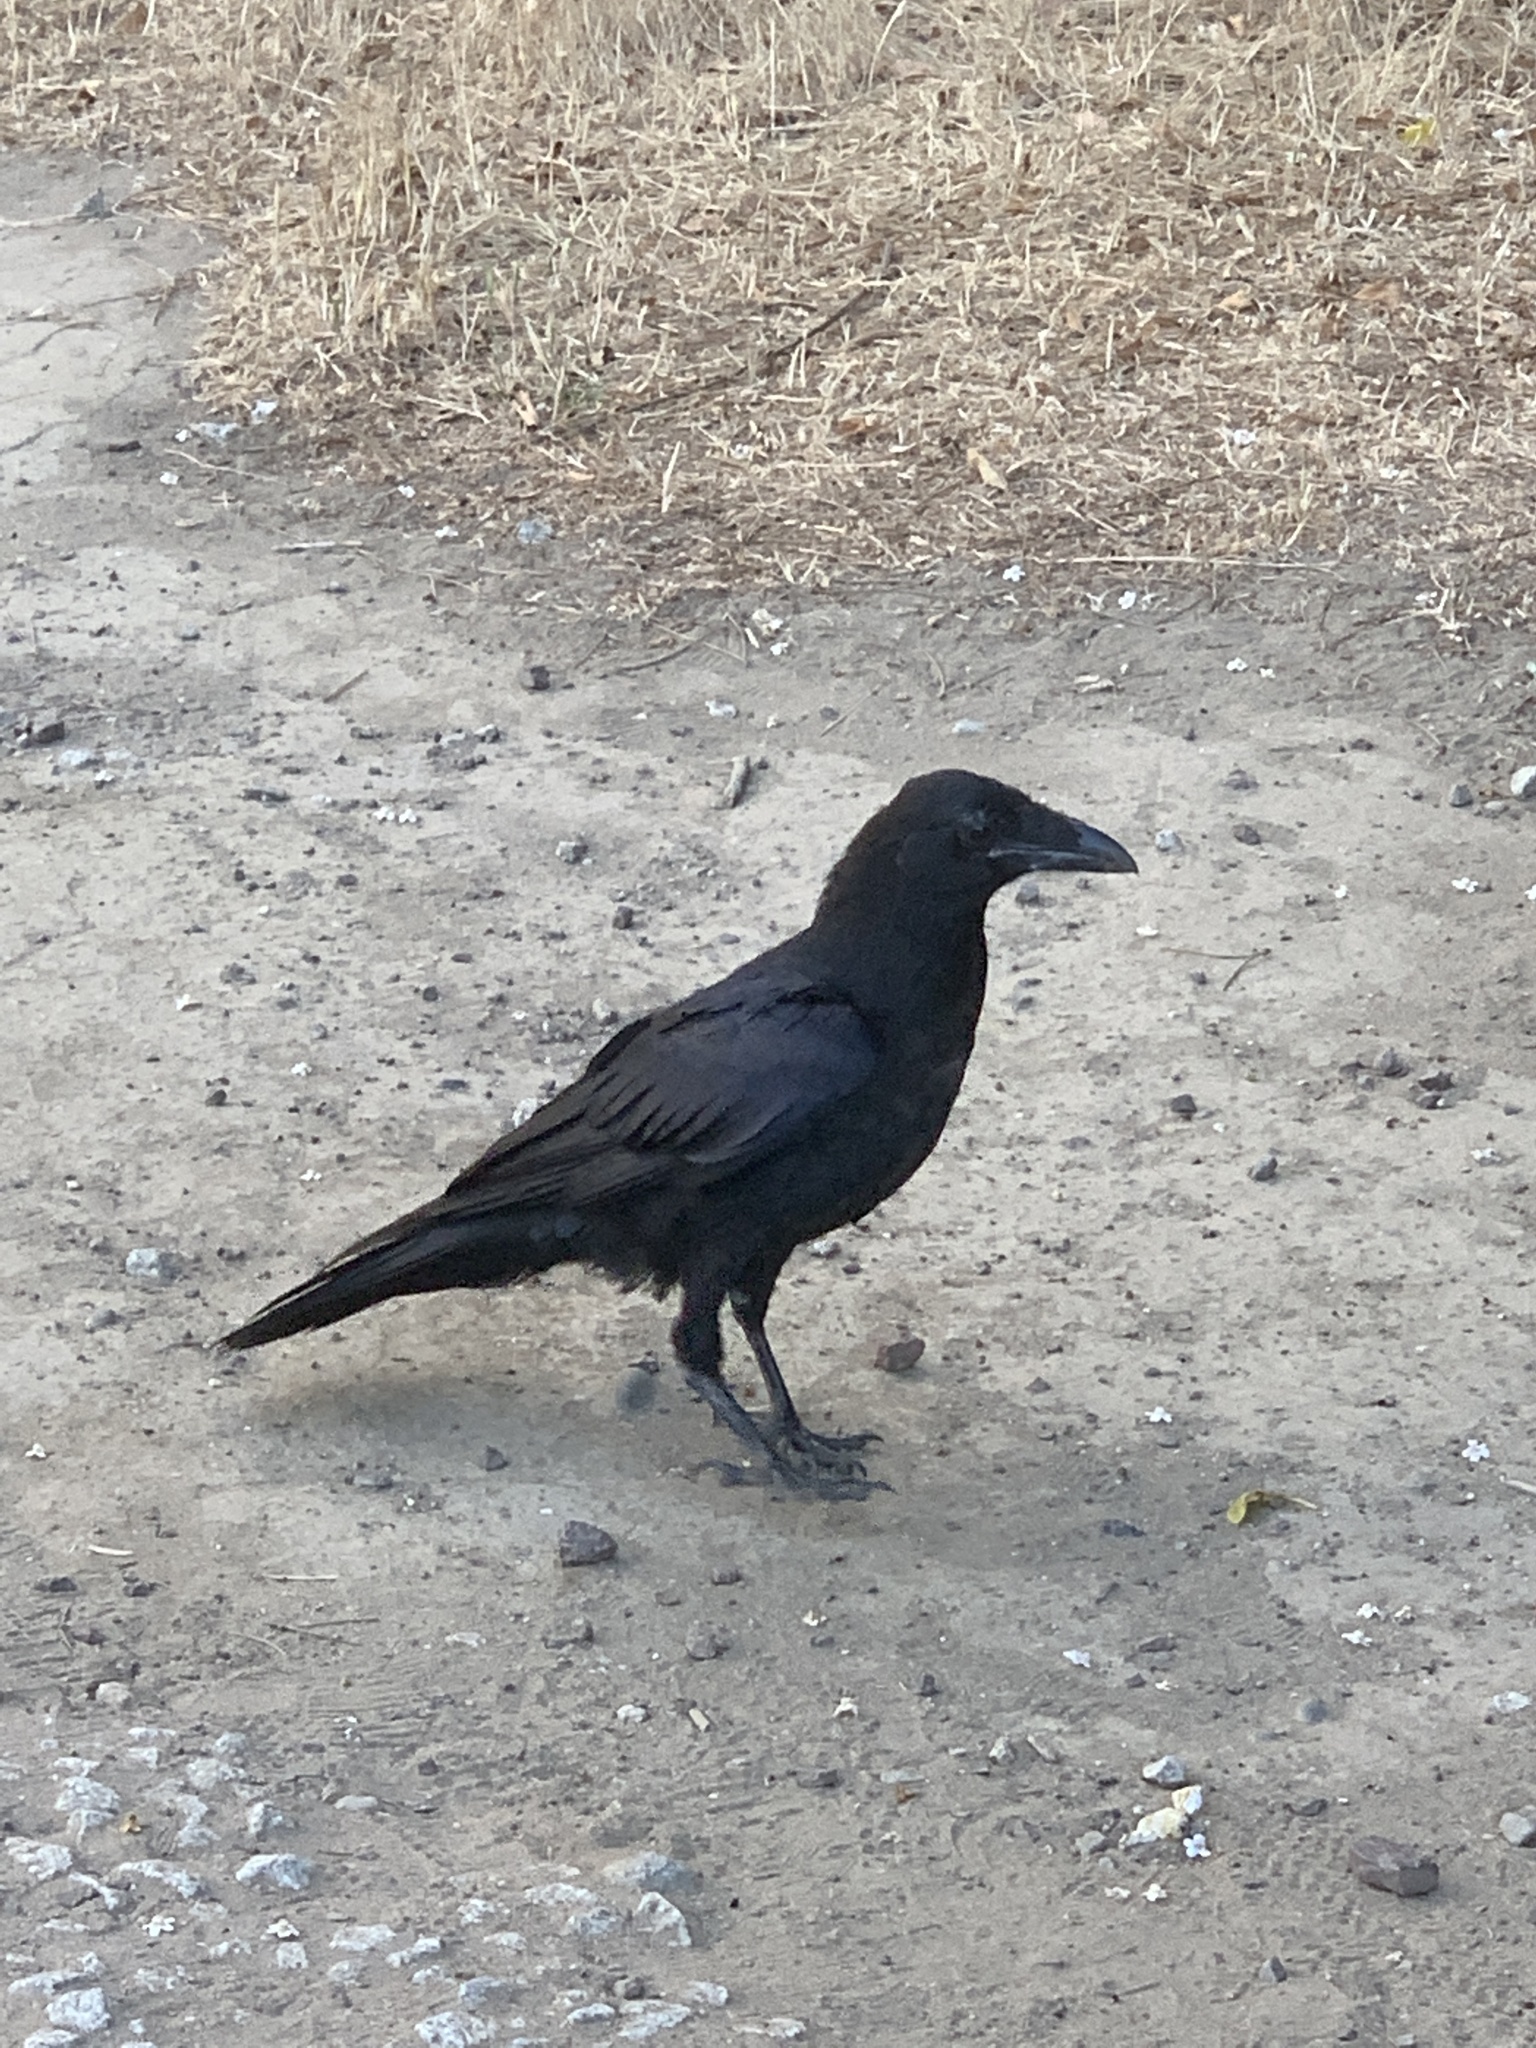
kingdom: Animalia
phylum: Chordata
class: Aves
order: Passeriformes
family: Corvidae
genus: Corvus
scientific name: Corvus corax
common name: Common raven
